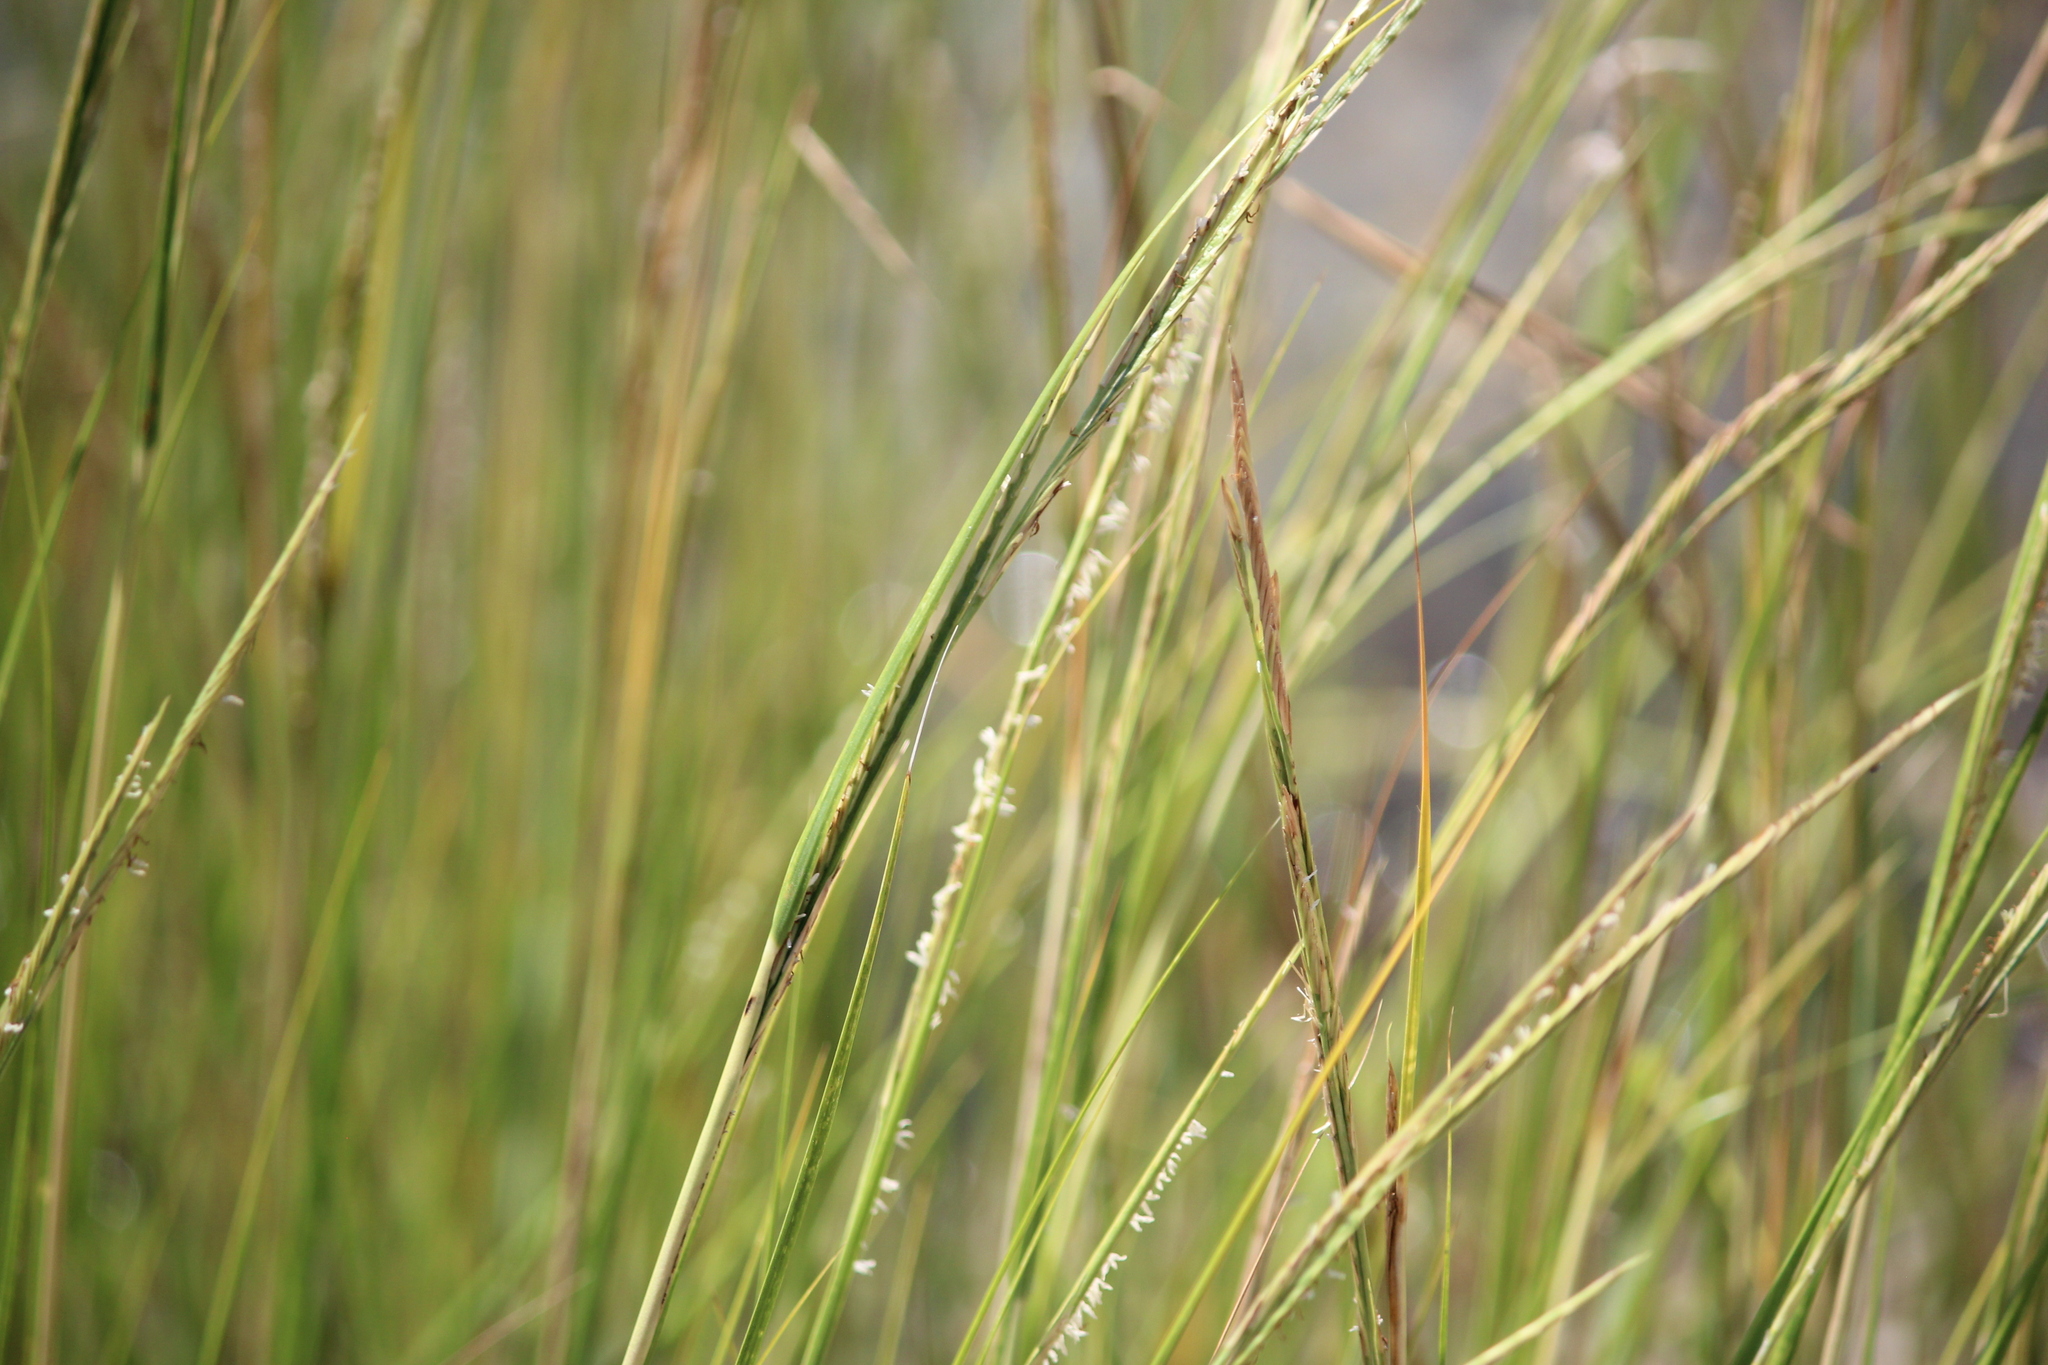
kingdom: Plantae
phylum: Tracheophyta
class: Liliopsida
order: Poales
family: Poaceae
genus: Sporobolus
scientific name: Sporobolus alterniflorus
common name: Atlantic cordgrass
